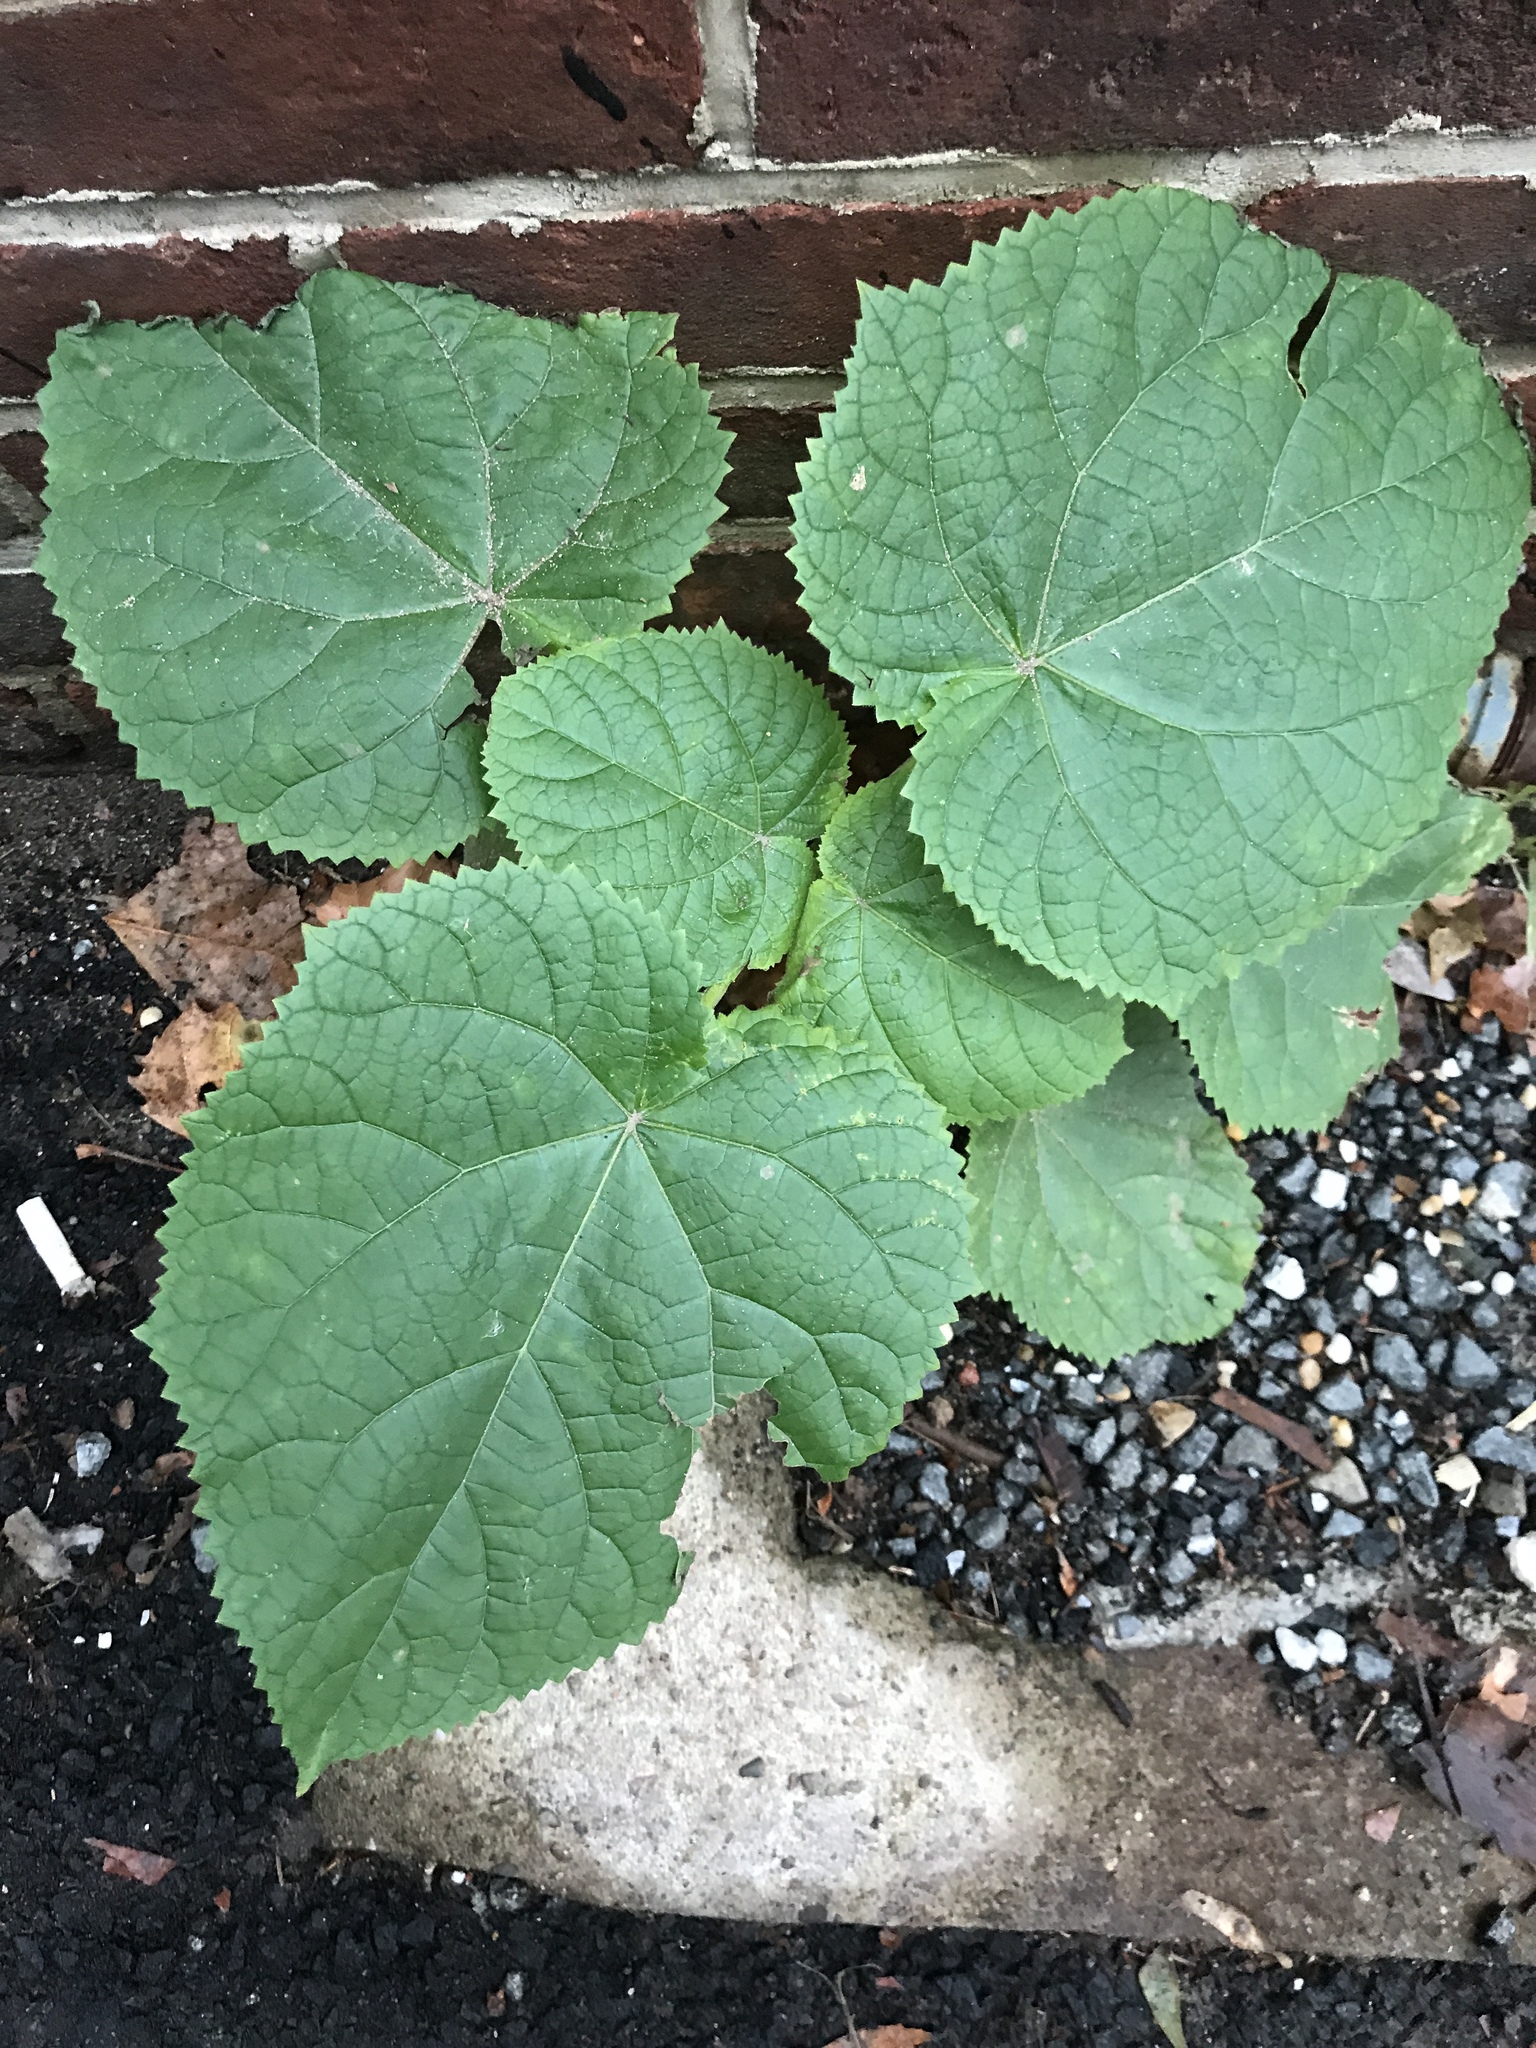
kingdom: Plantae
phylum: Tracheophyta
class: Magnoliopsida
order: Lamiales
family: Paulowniaceae
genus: Paulownia
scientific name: Paulownia tomentosa
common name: Foxglove-tree
